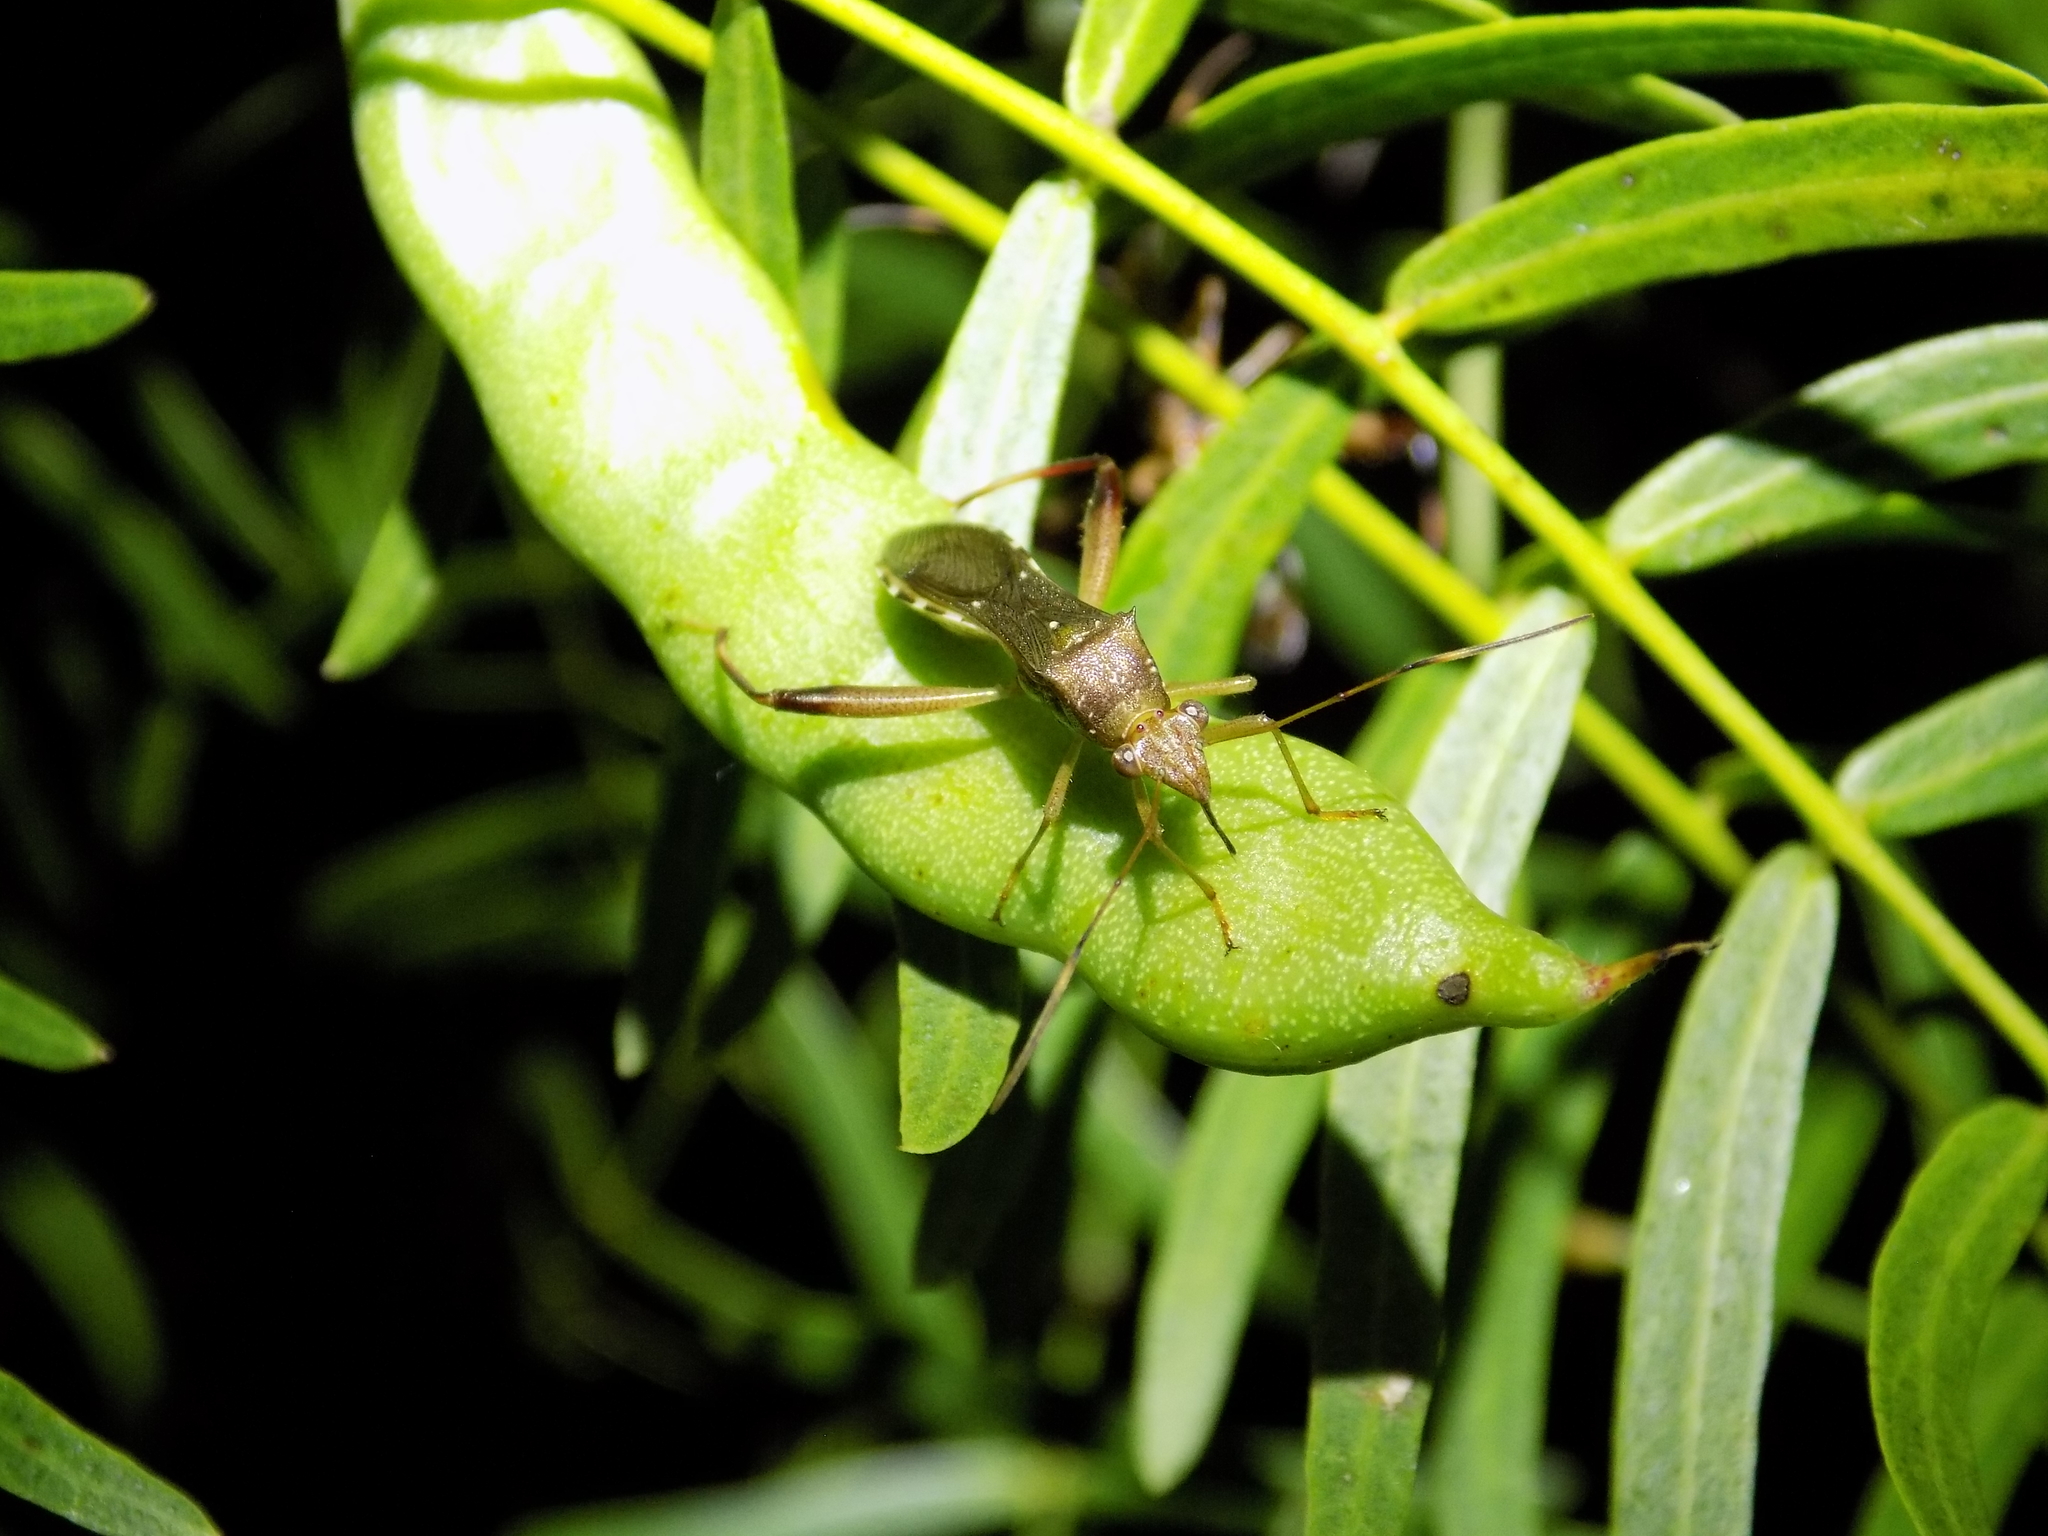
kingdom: Animalia
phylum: Arthropoda
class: Insecta
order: Hemiptera
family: Alydidae
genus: Hyalymenus
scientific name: Hyalymenus tarsatus
